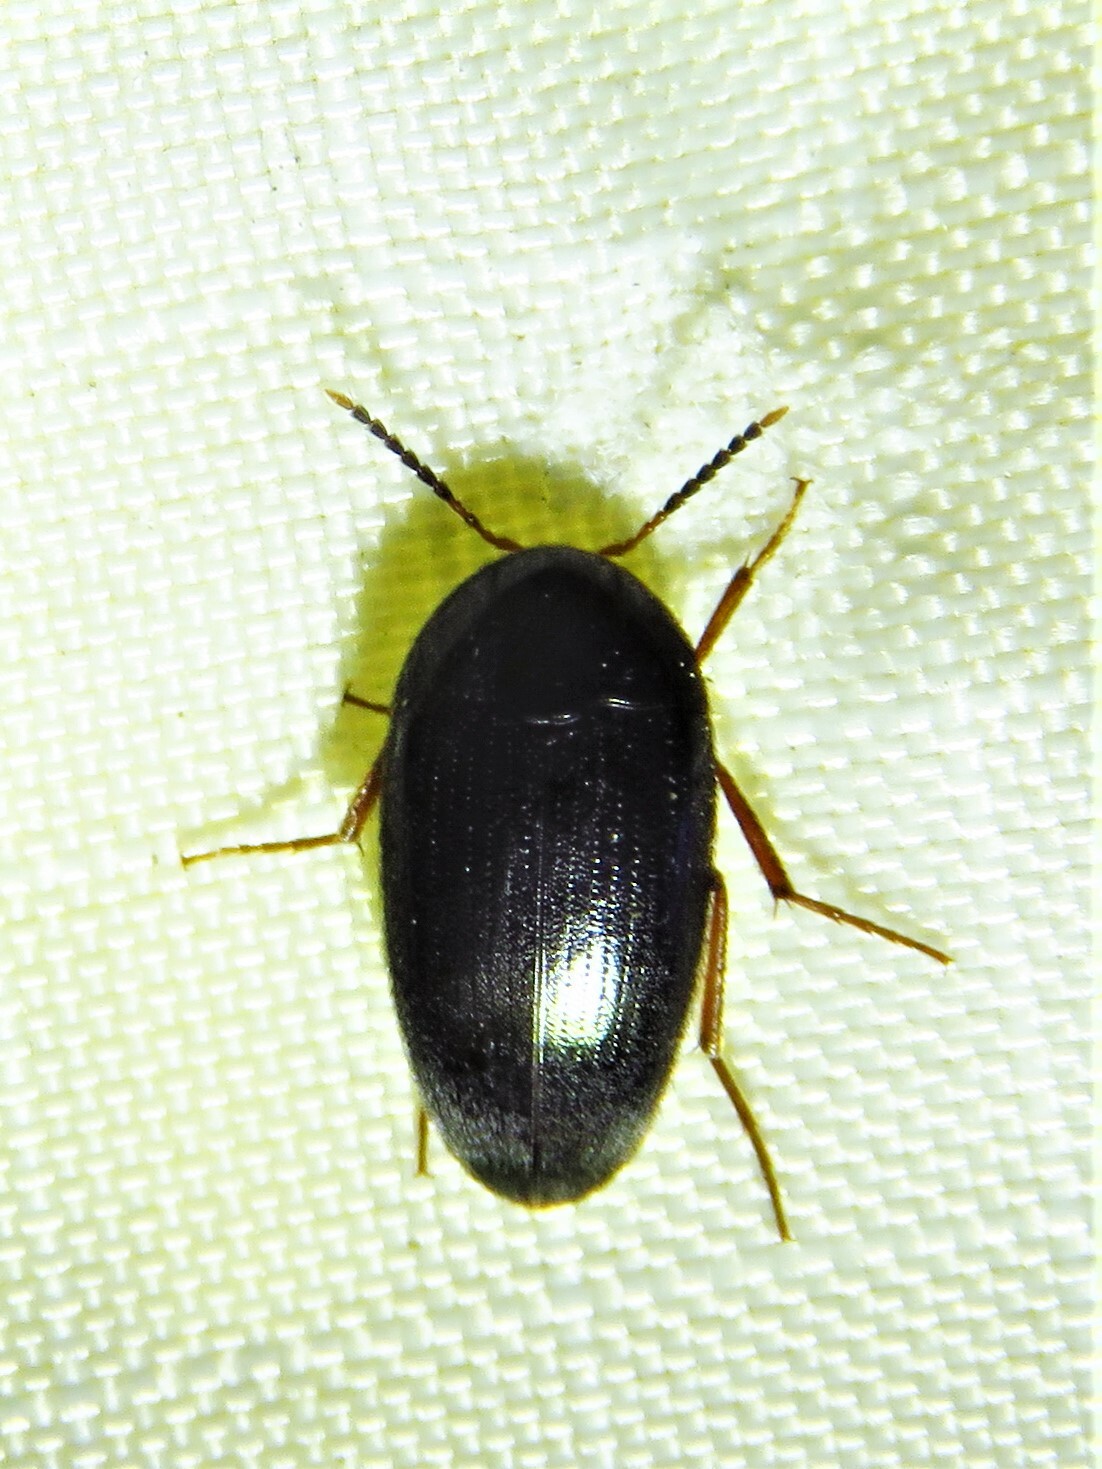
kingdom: Animalia
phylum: Arthropoda
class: Insecta
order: Coleoptera
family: Tetratomidae
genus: Eustrophopsis
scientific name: Eustrophopsis bicolor
